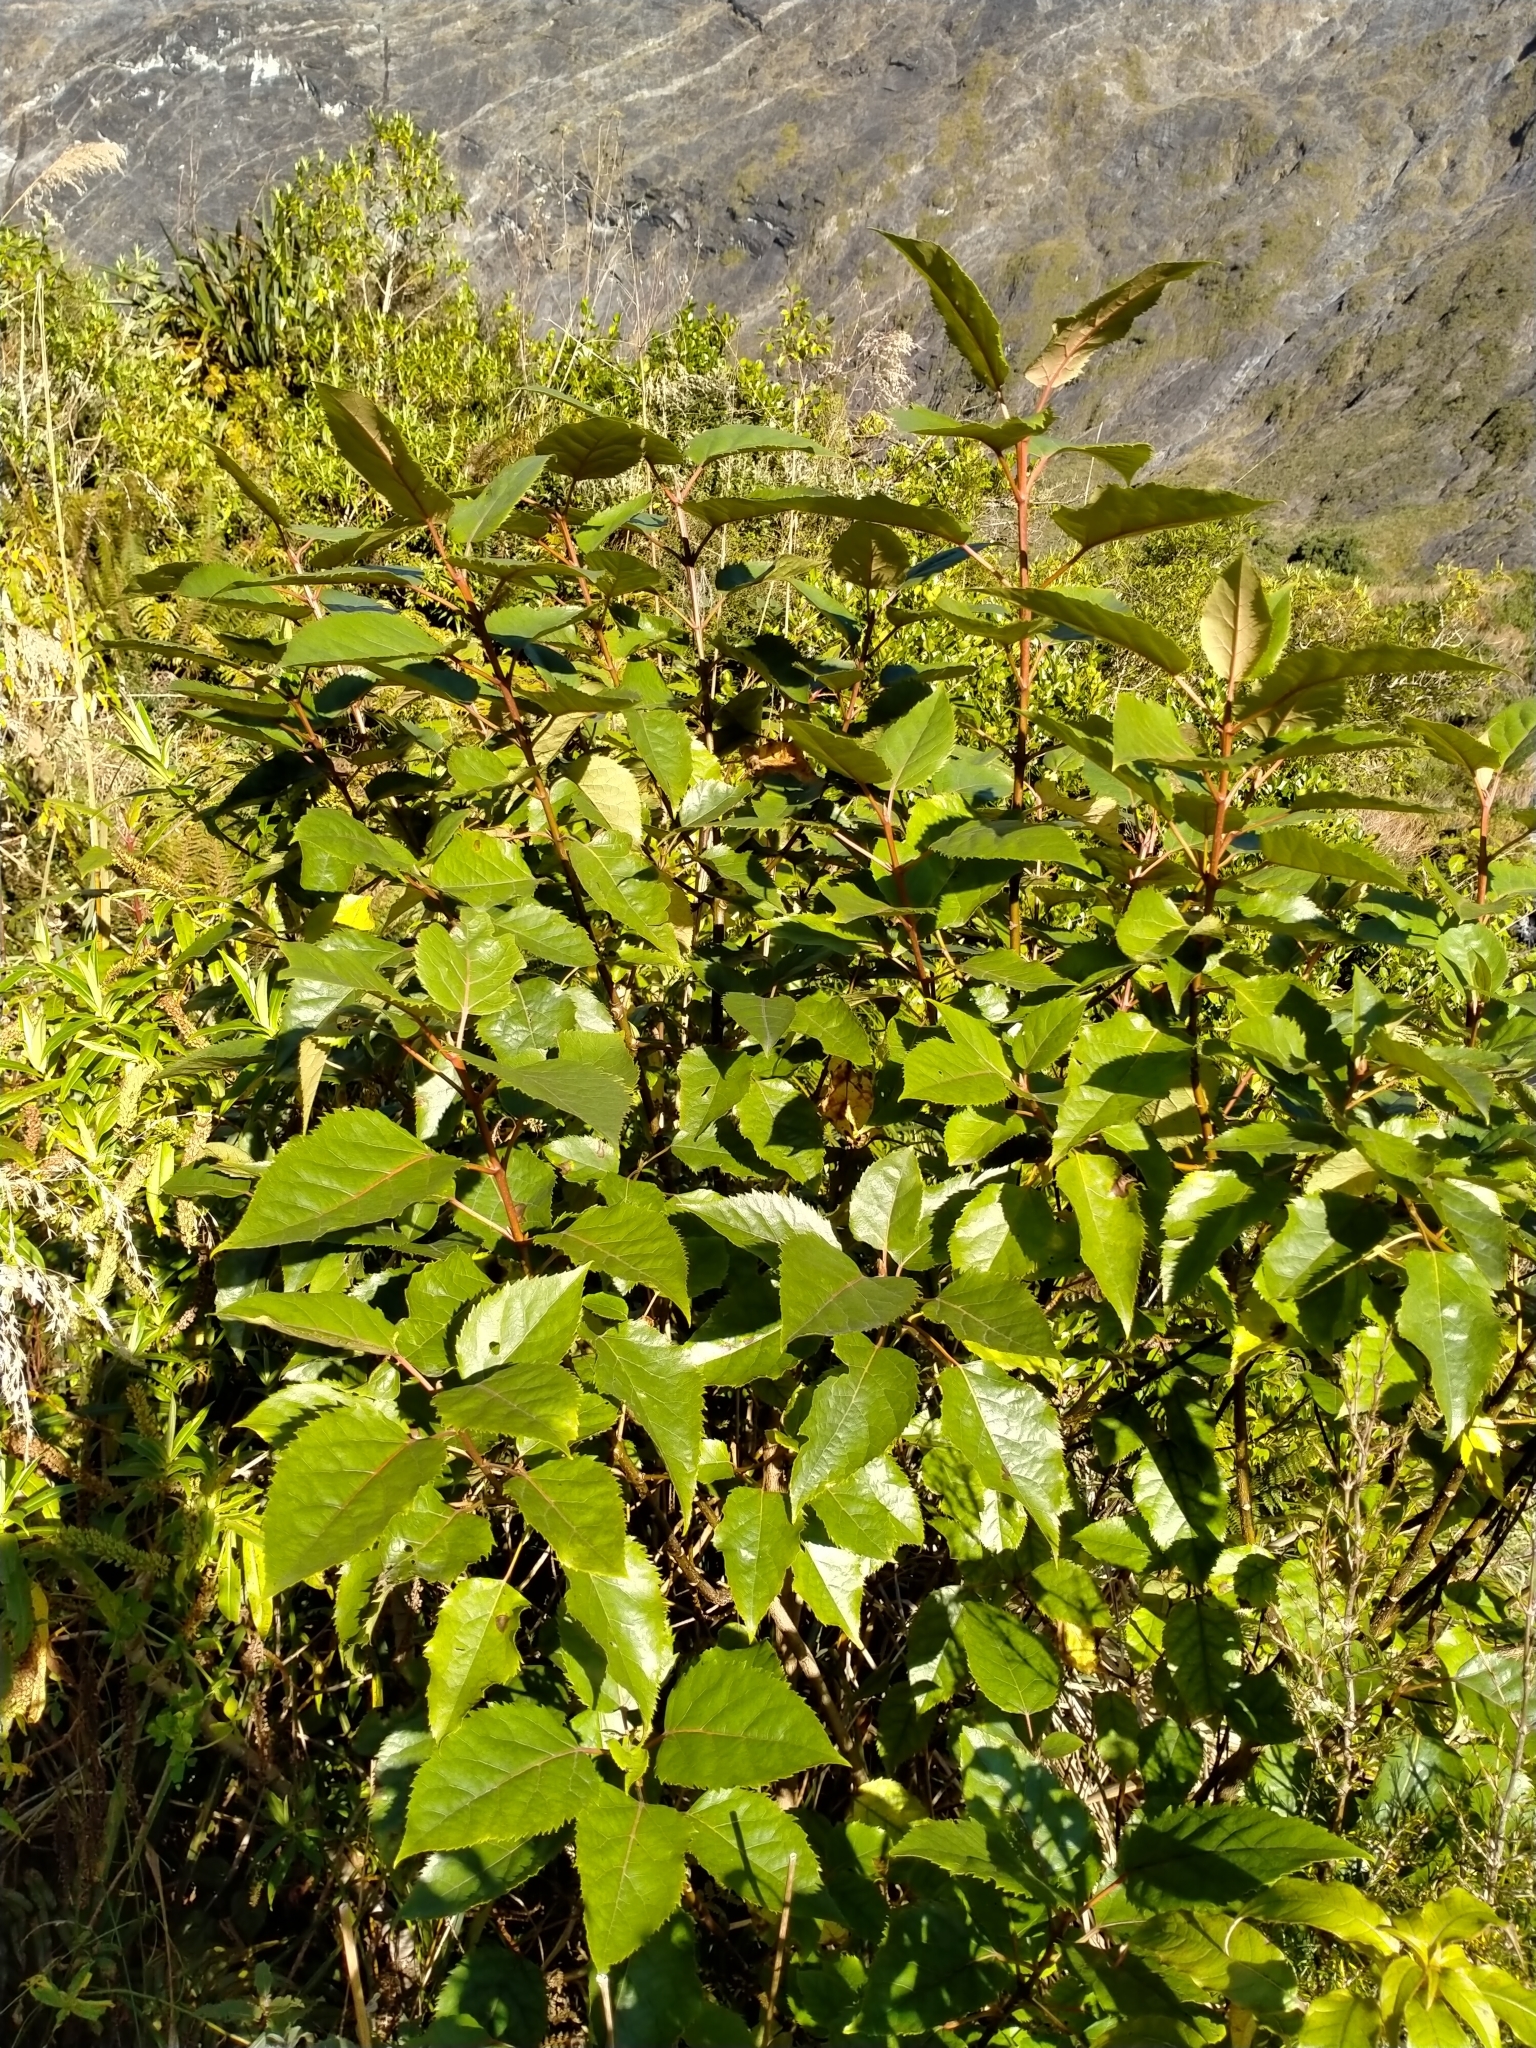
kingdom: Plantae
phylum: Tracheophyta
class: Magnoliopsida
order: Oxalidales
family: Elaeocarpaceae
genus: Aristotelia
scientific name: Aristotelia serrata
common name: New zealand wineberry
